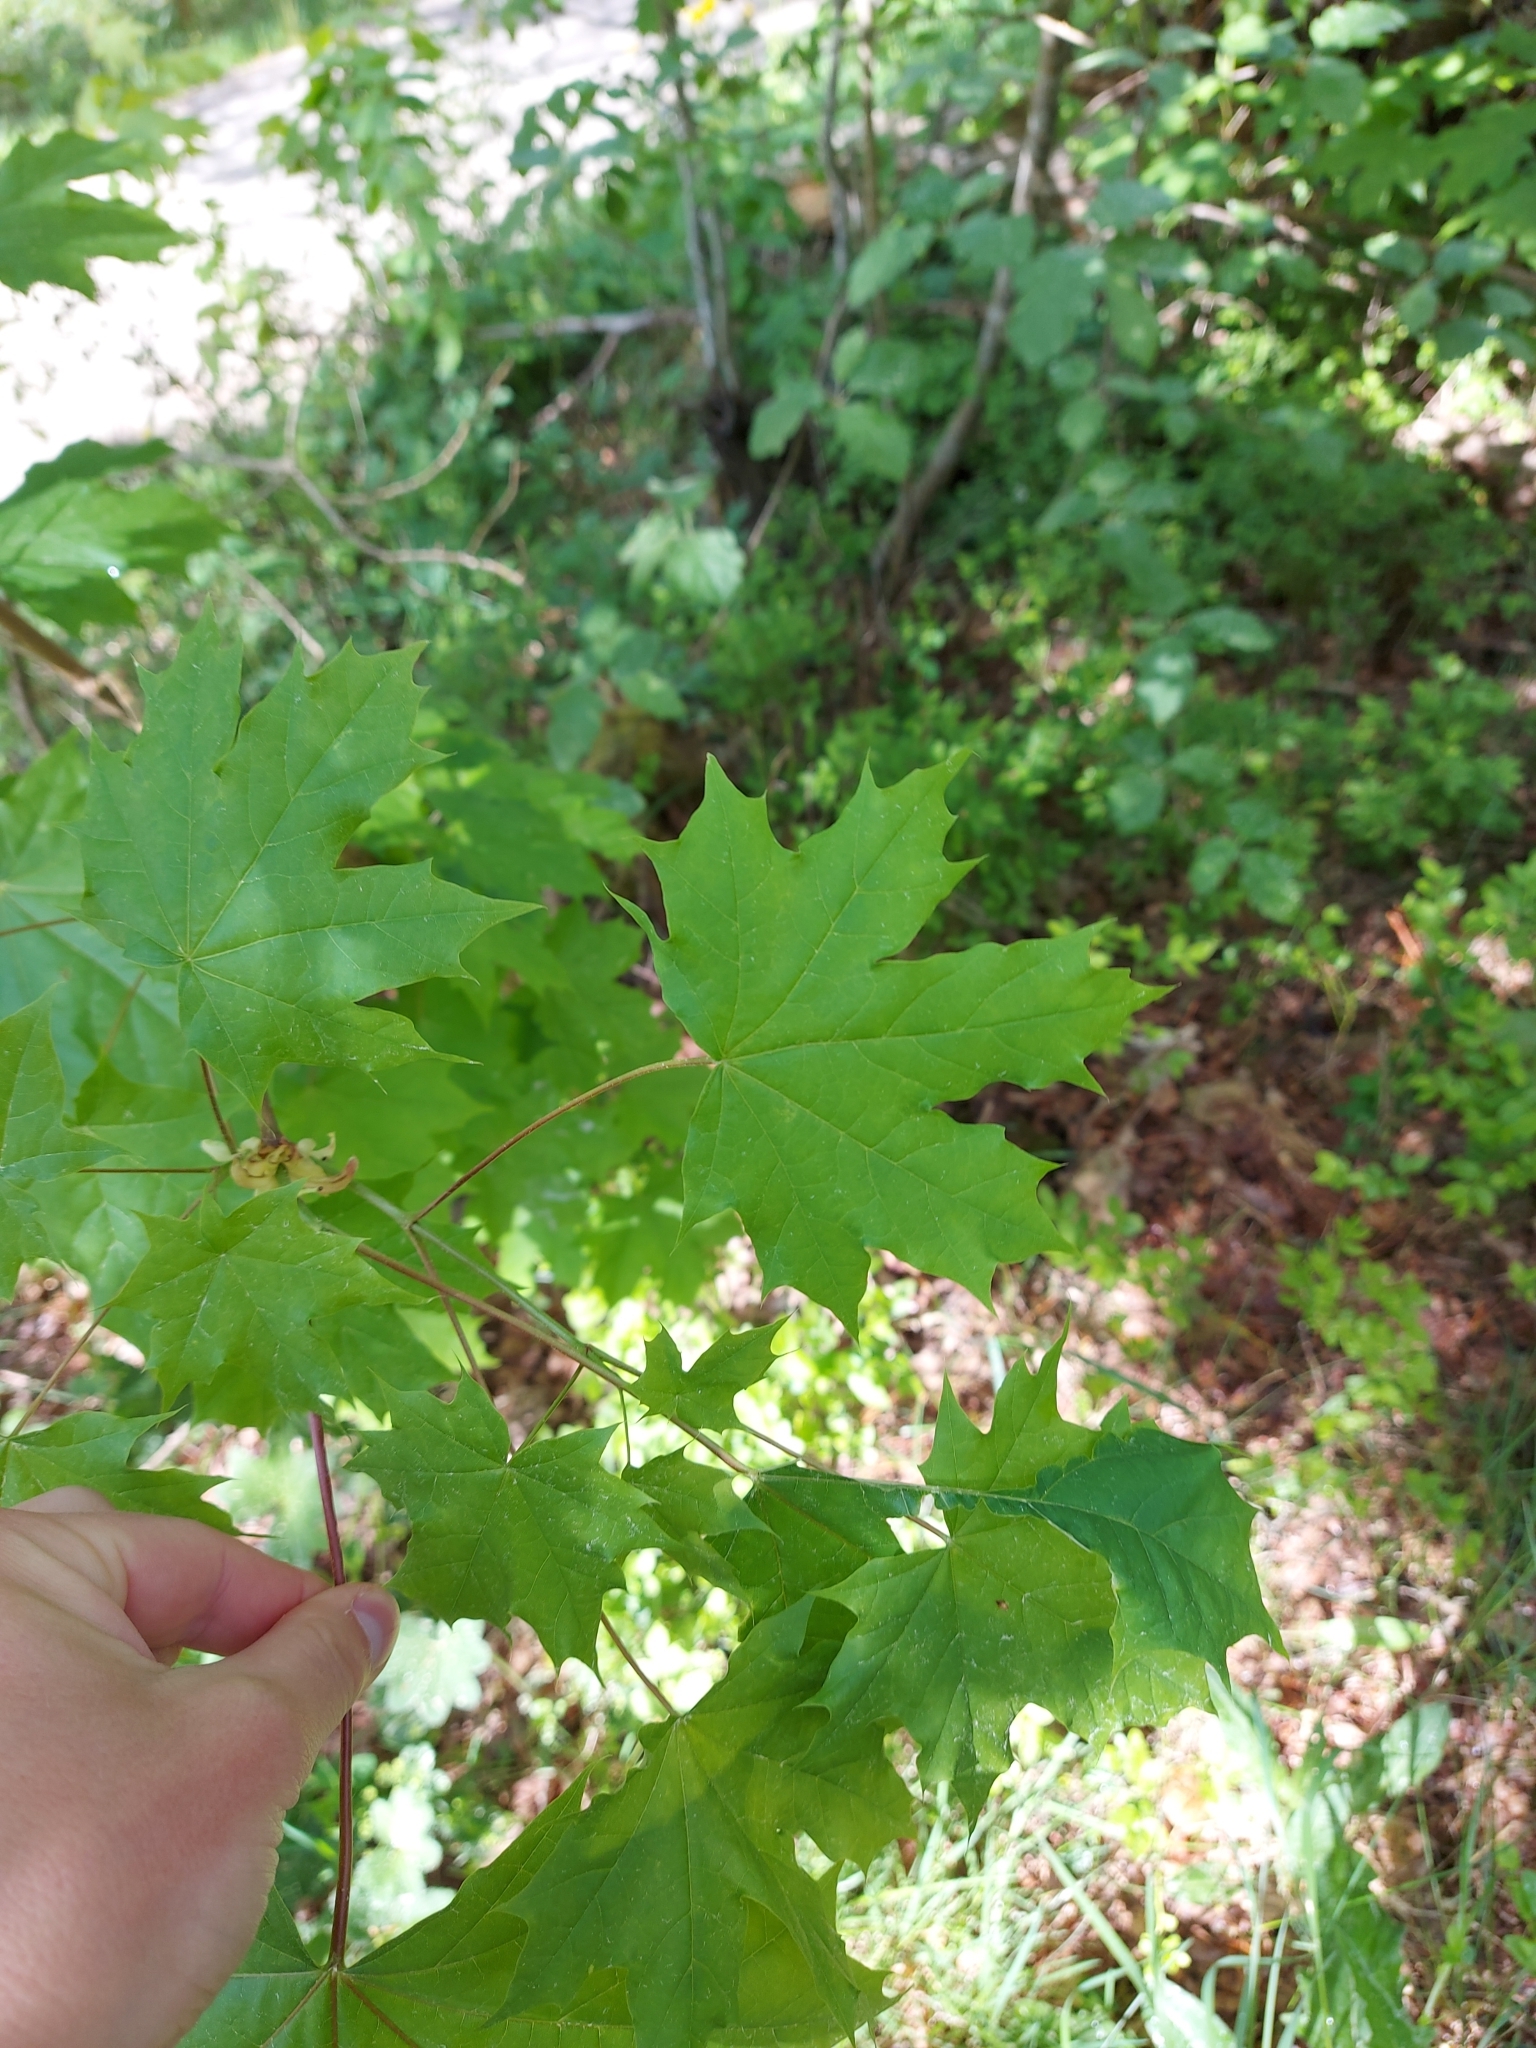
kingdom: Plantae
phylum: Tracheophyta
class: Magnoliopsida
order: Sapindales
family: Sapindaceae
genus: Acer
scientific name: Acer platanoides
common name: Norway maple
